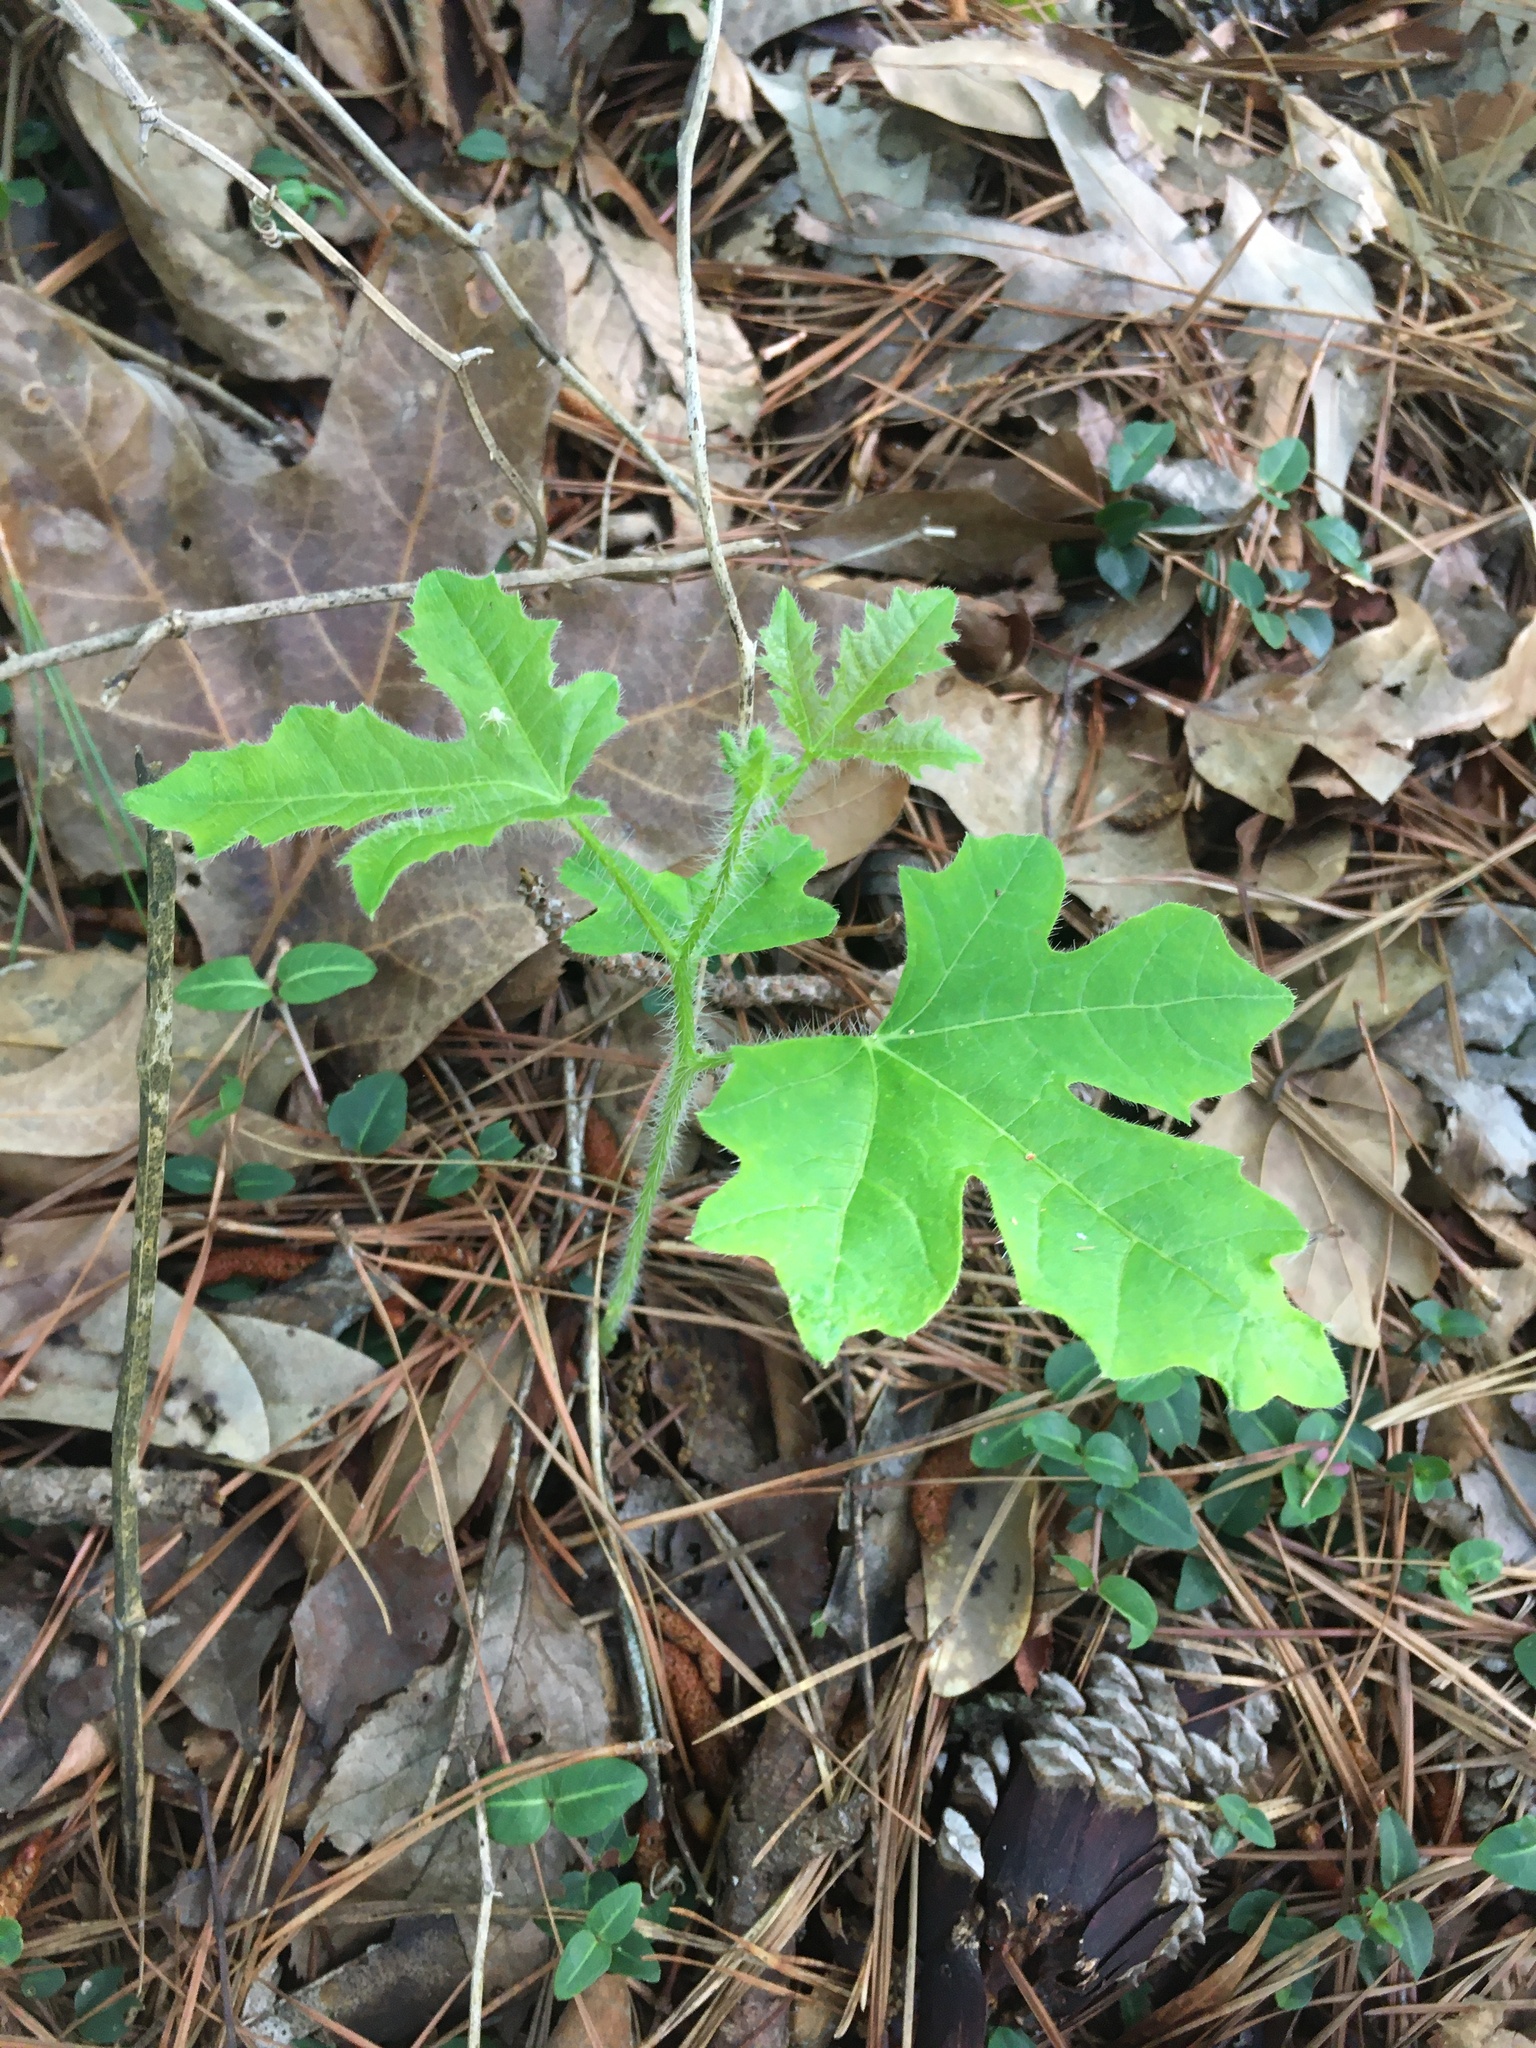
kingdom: Plantae
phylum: Tracheophyta
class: Magnoliopsida
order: Malpighiales
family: Euphorbiaceae
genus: Cnidoscolus
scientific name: Cnidoscolus stimulosus
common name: Bull-nettle
